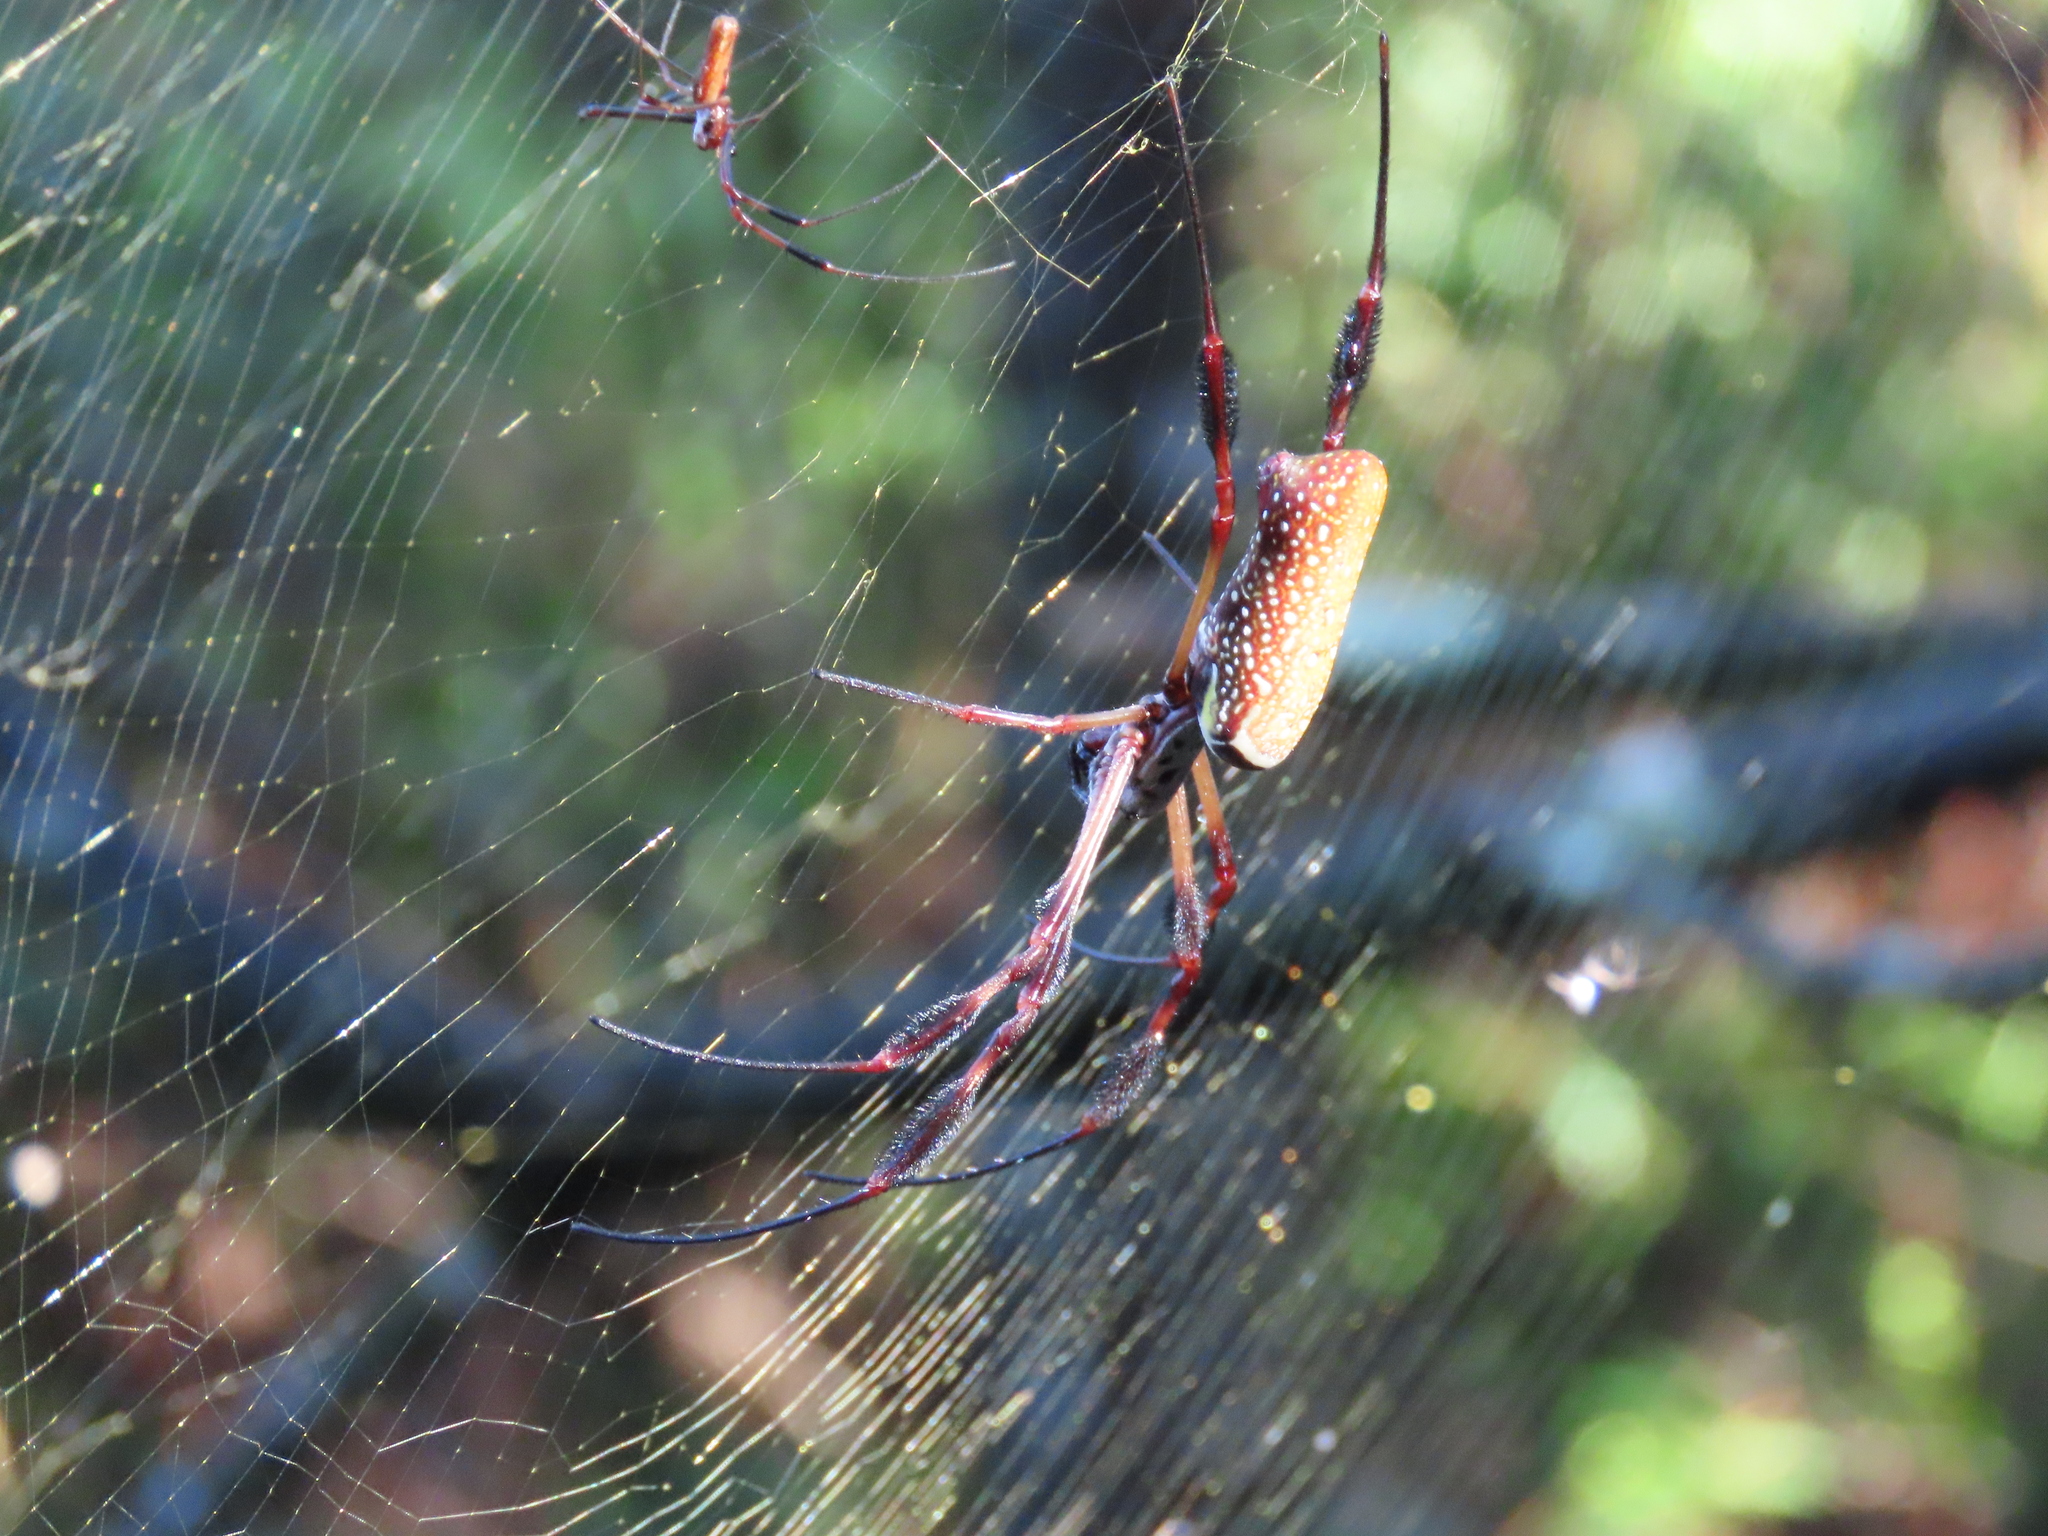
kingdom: Animalia
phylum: Arthropoda
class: Arachnida
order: Araneae
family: Araneidae
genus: Trichonephila
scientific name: Trichonephila clavipes
